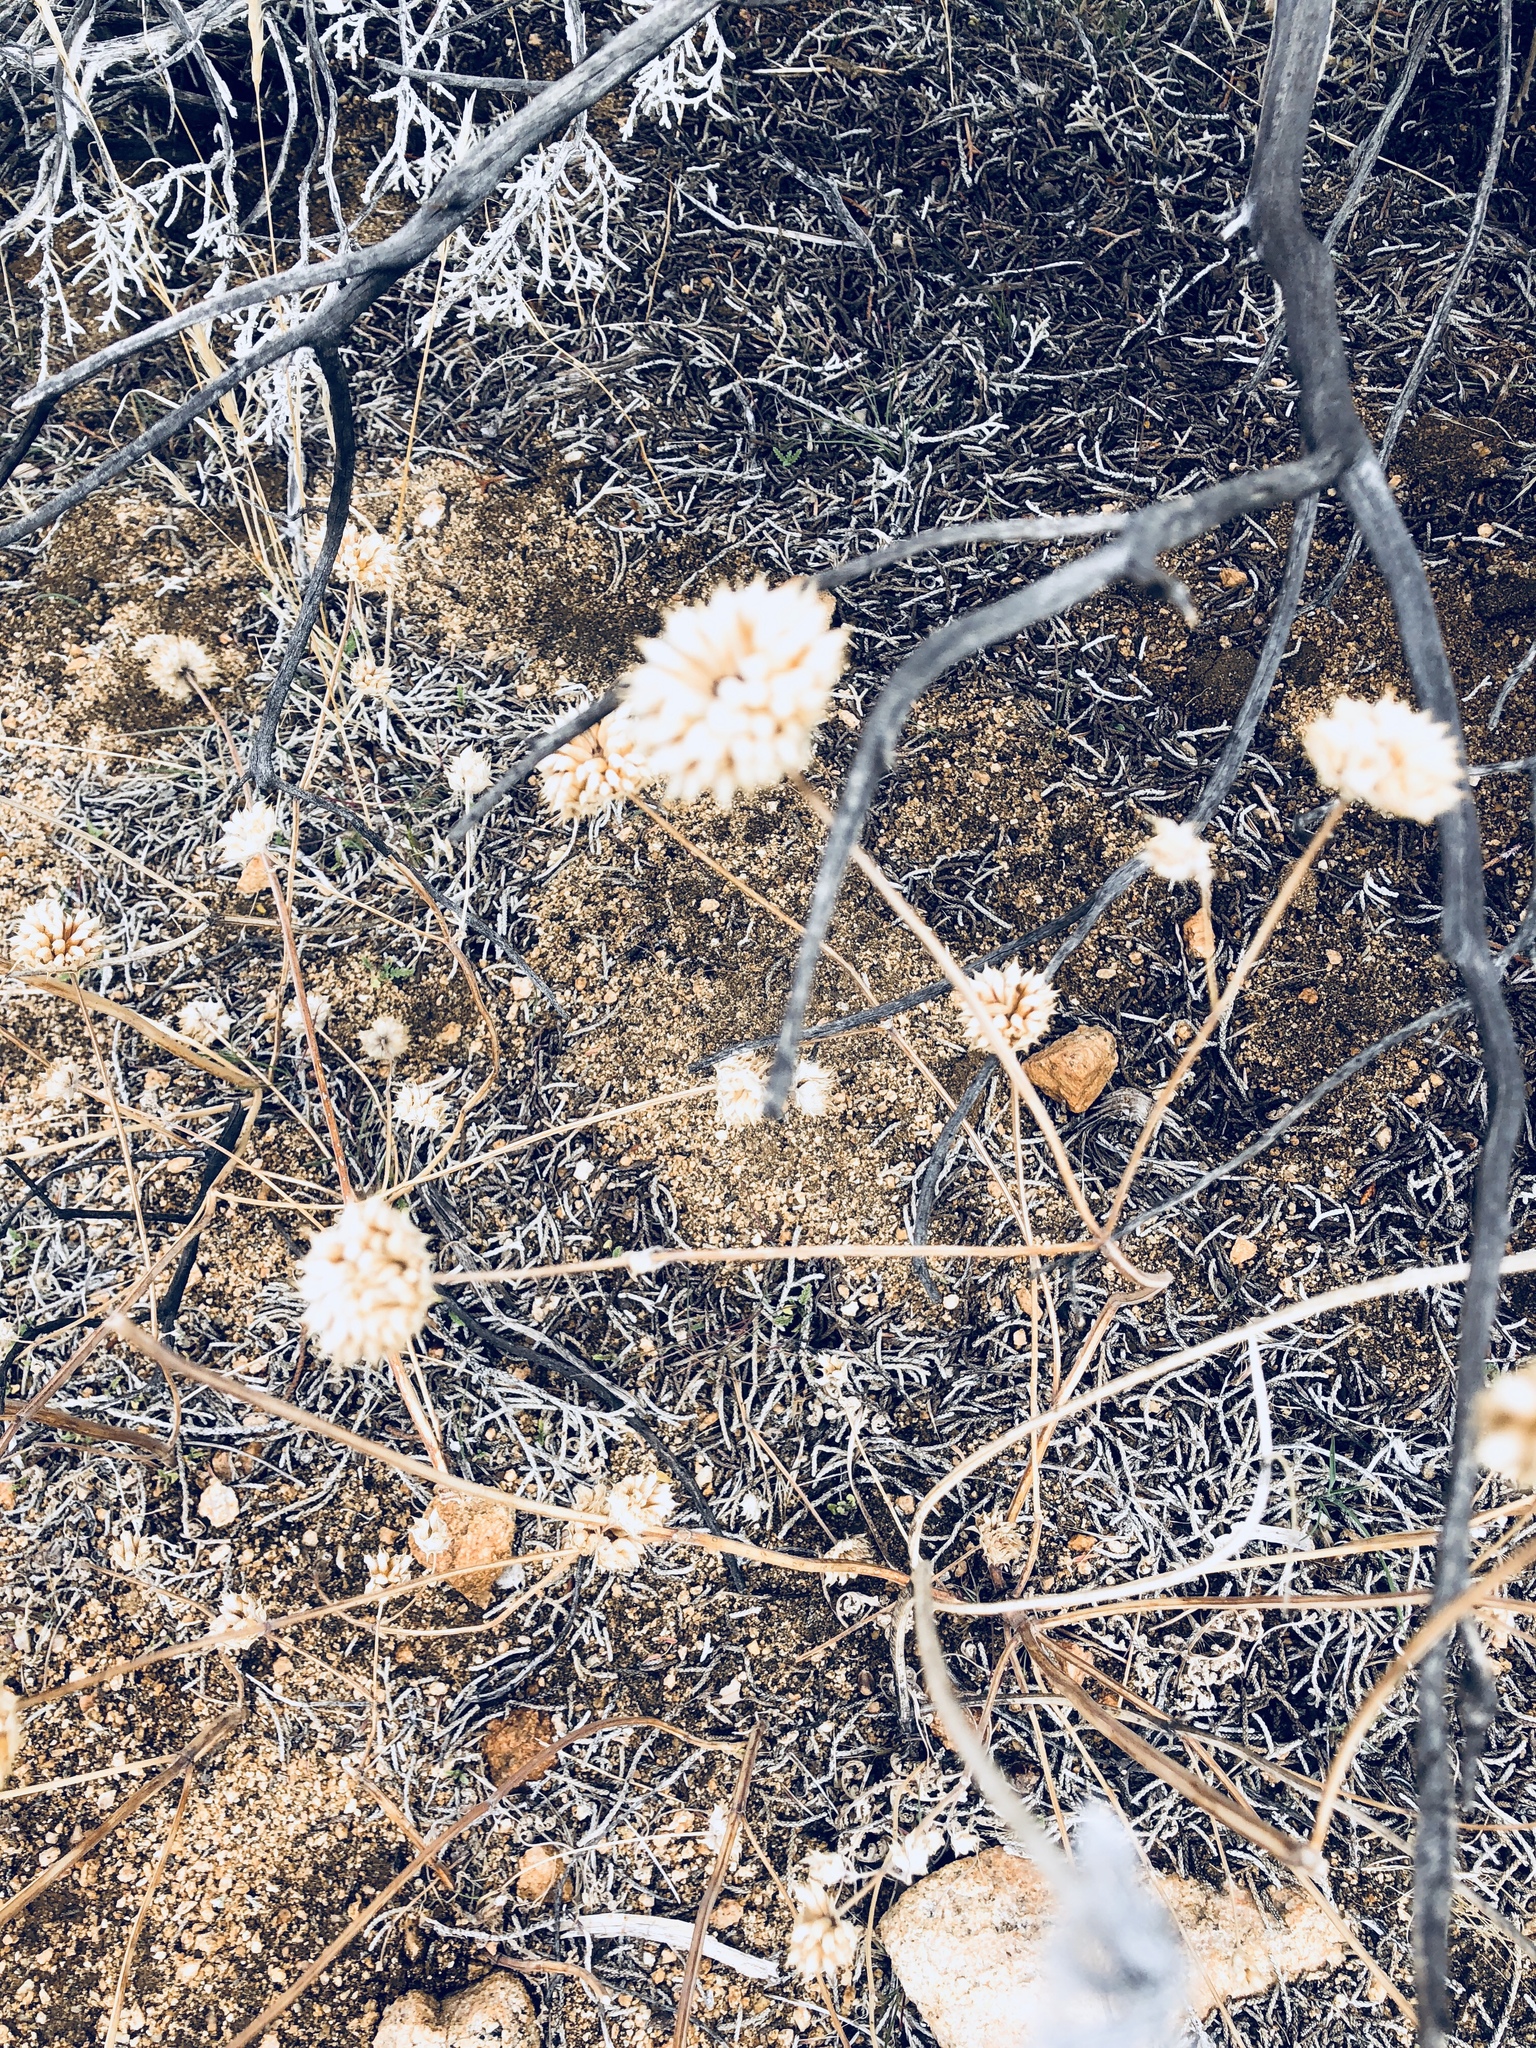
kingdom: Plantae
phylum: Tracheophyta
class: Magnoliopsida
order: Lamiales
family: Lamiaceae
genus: Salvia
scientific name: Salvia columbariae
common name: Chia
